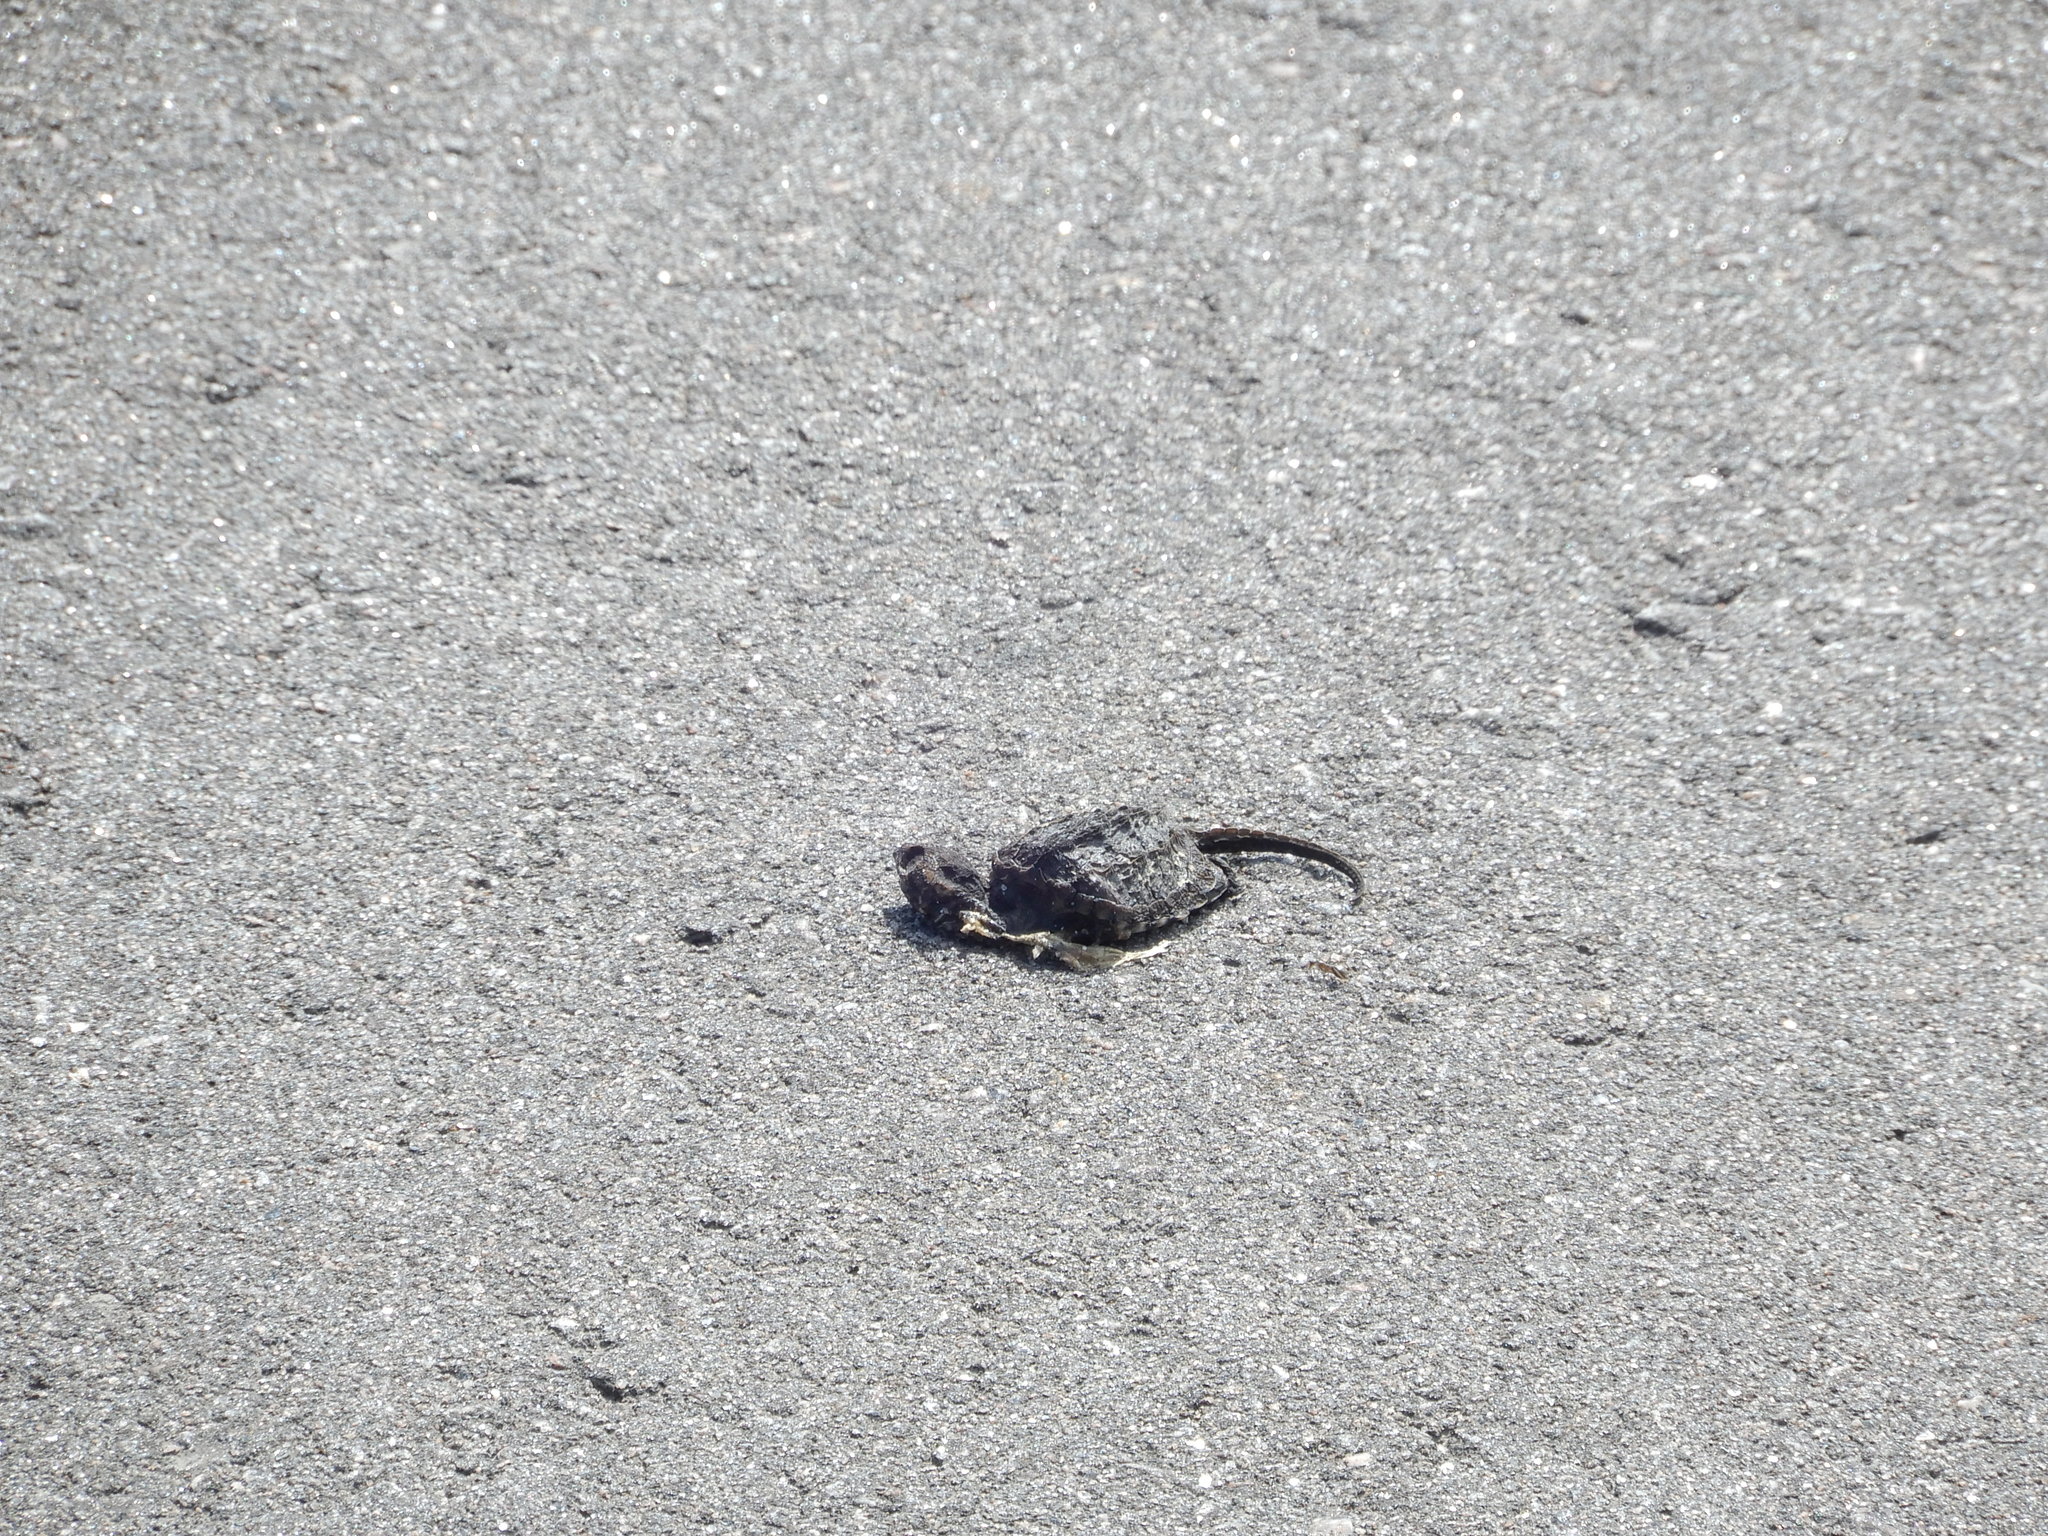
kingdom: Animalia
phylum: Chordata
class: Testudines
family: Chelydridae
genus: Chelydra
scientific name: Chelydra serpentina
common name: Common snapping turtle
